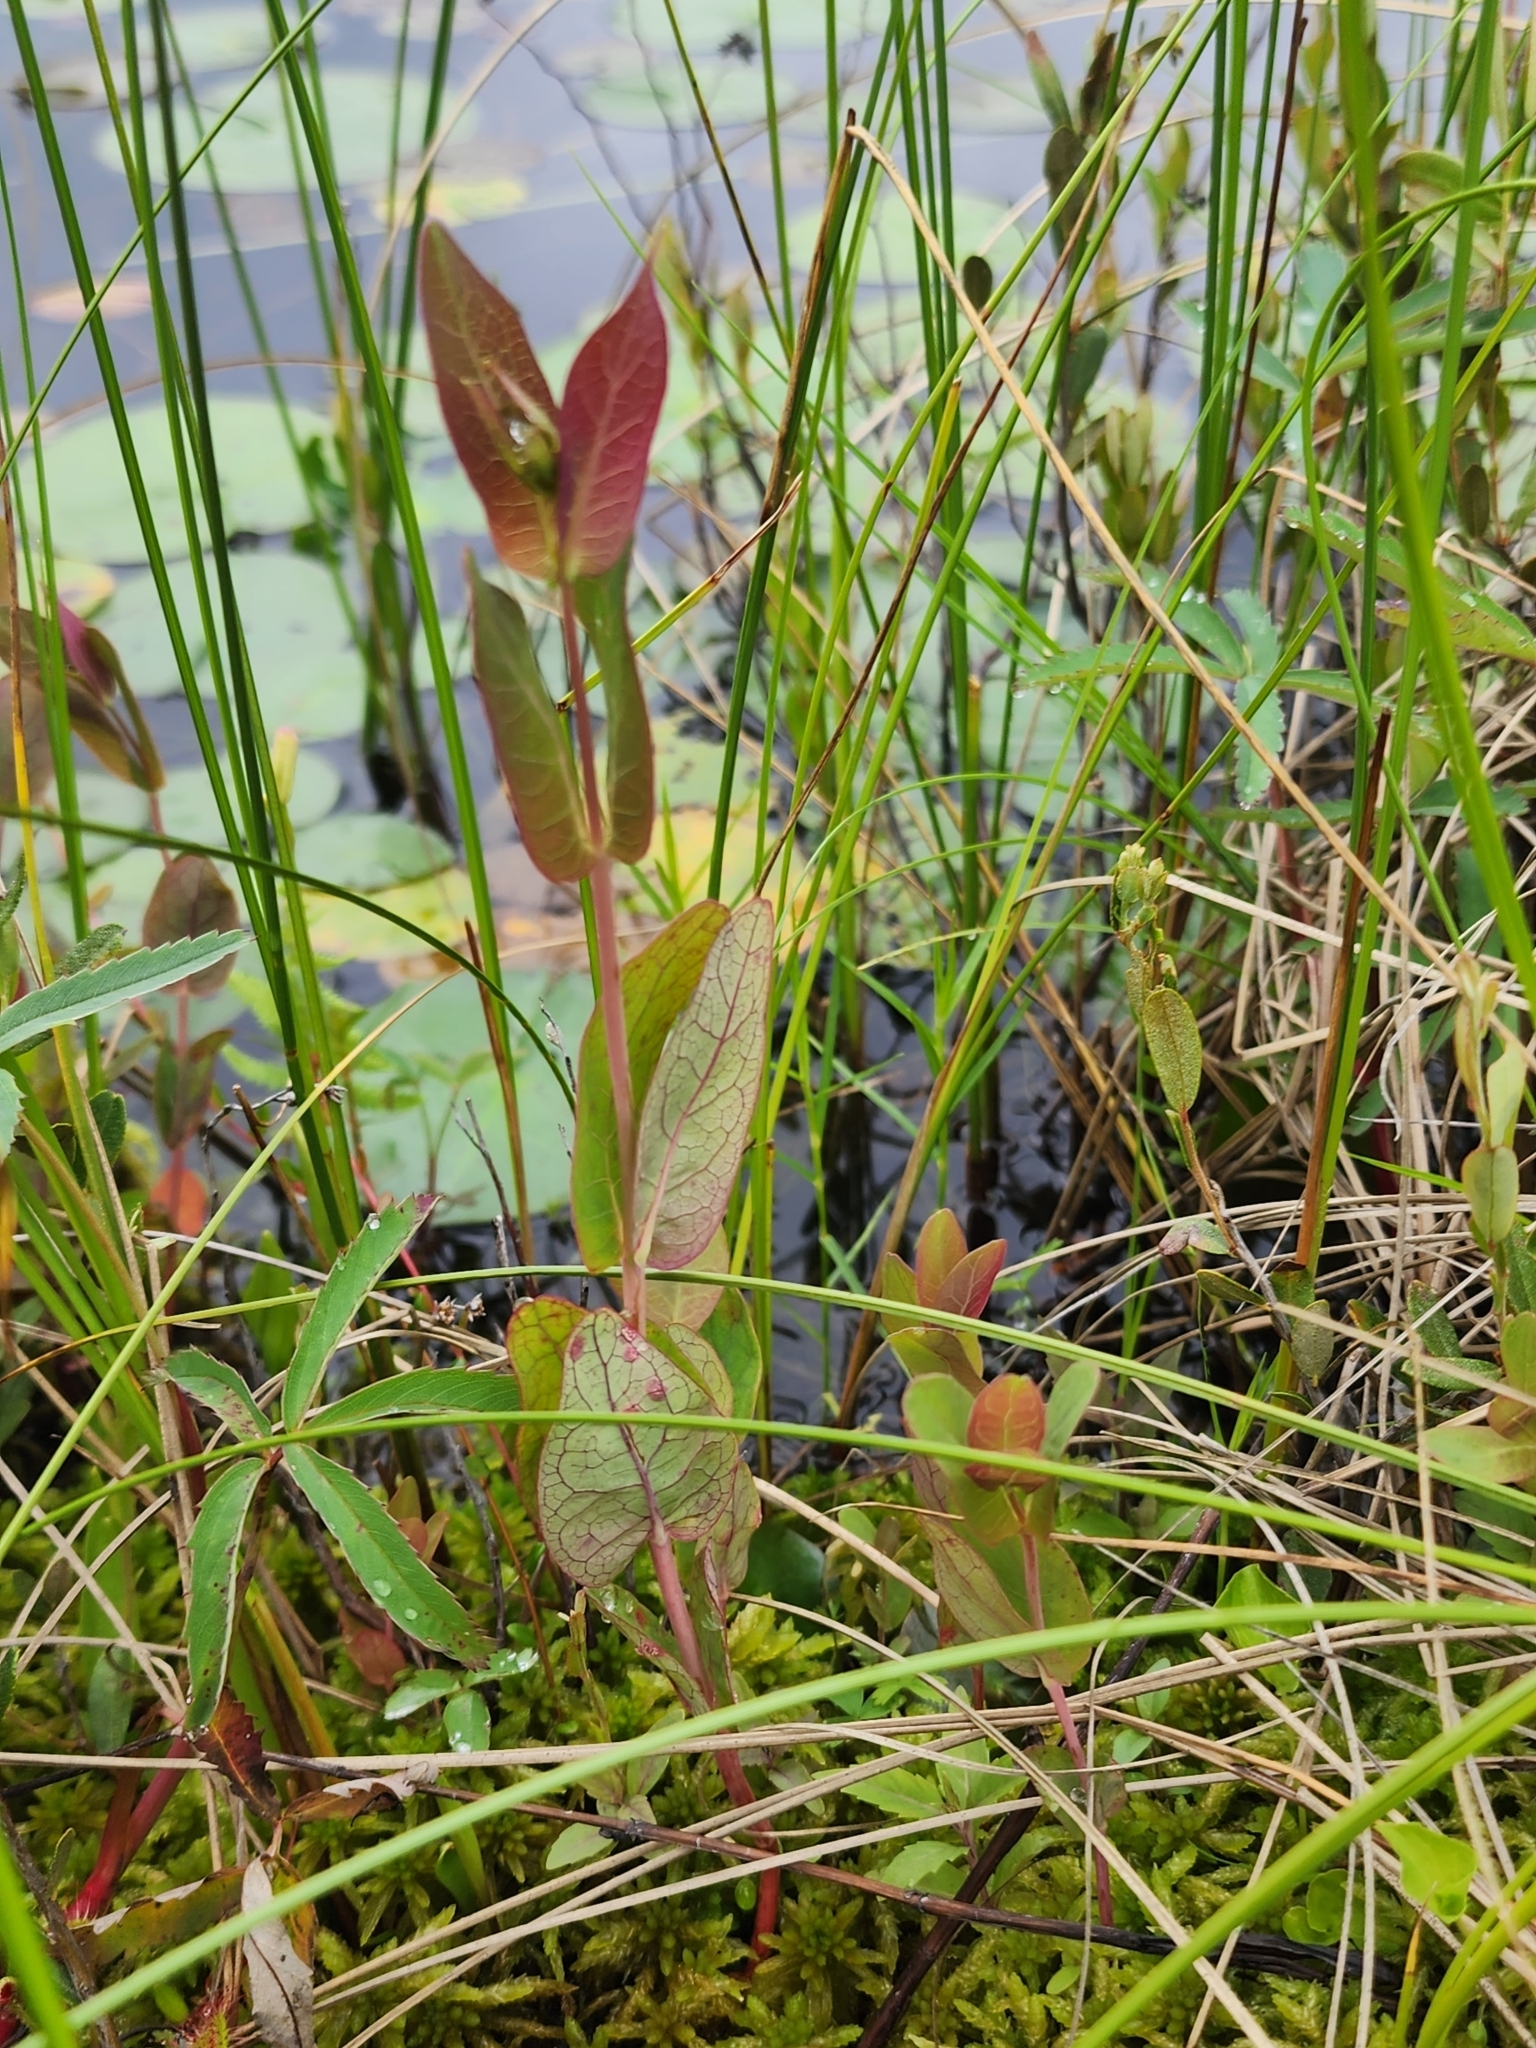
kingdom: Plantae
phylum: Tracheophyta
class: Magnoliopsida
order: Malpighiales
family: Hypericaceae
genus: Triadenum
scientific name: Triadenum fraseri
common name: Fraser's marsh st. johnswort
